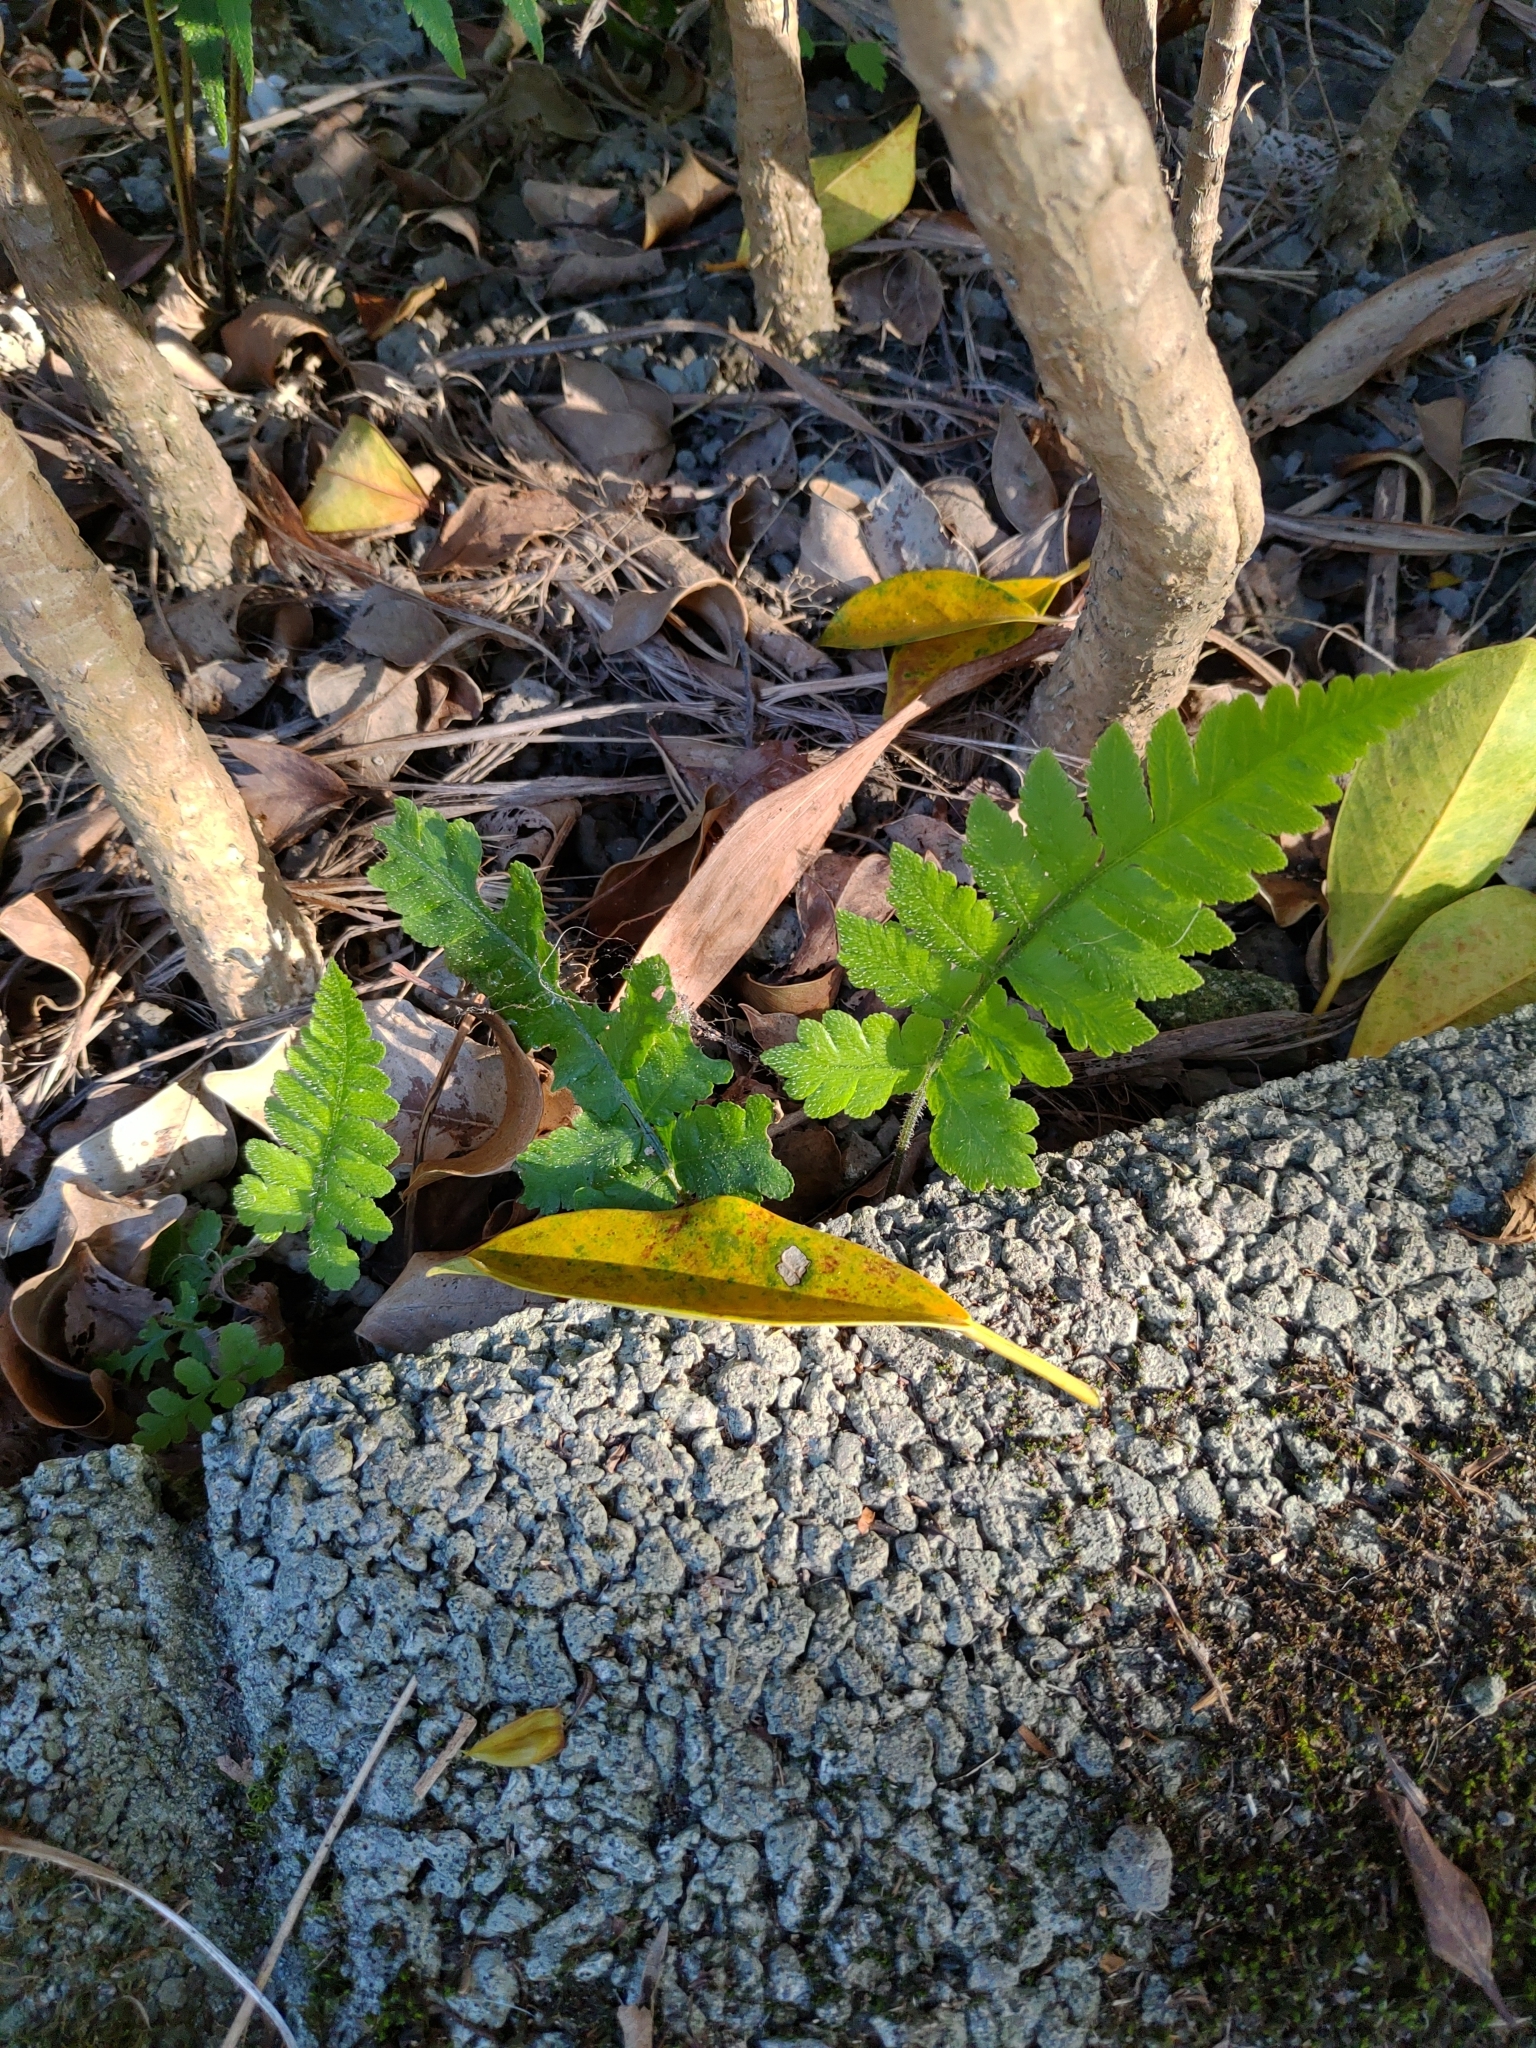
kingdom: Plantae
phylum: Tracheophyta
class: Polypodiopsida
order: Polypodiales
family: Athyriaceae
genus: Deparia
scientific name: Deparia petersenii
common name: Japanese false spleenwort
